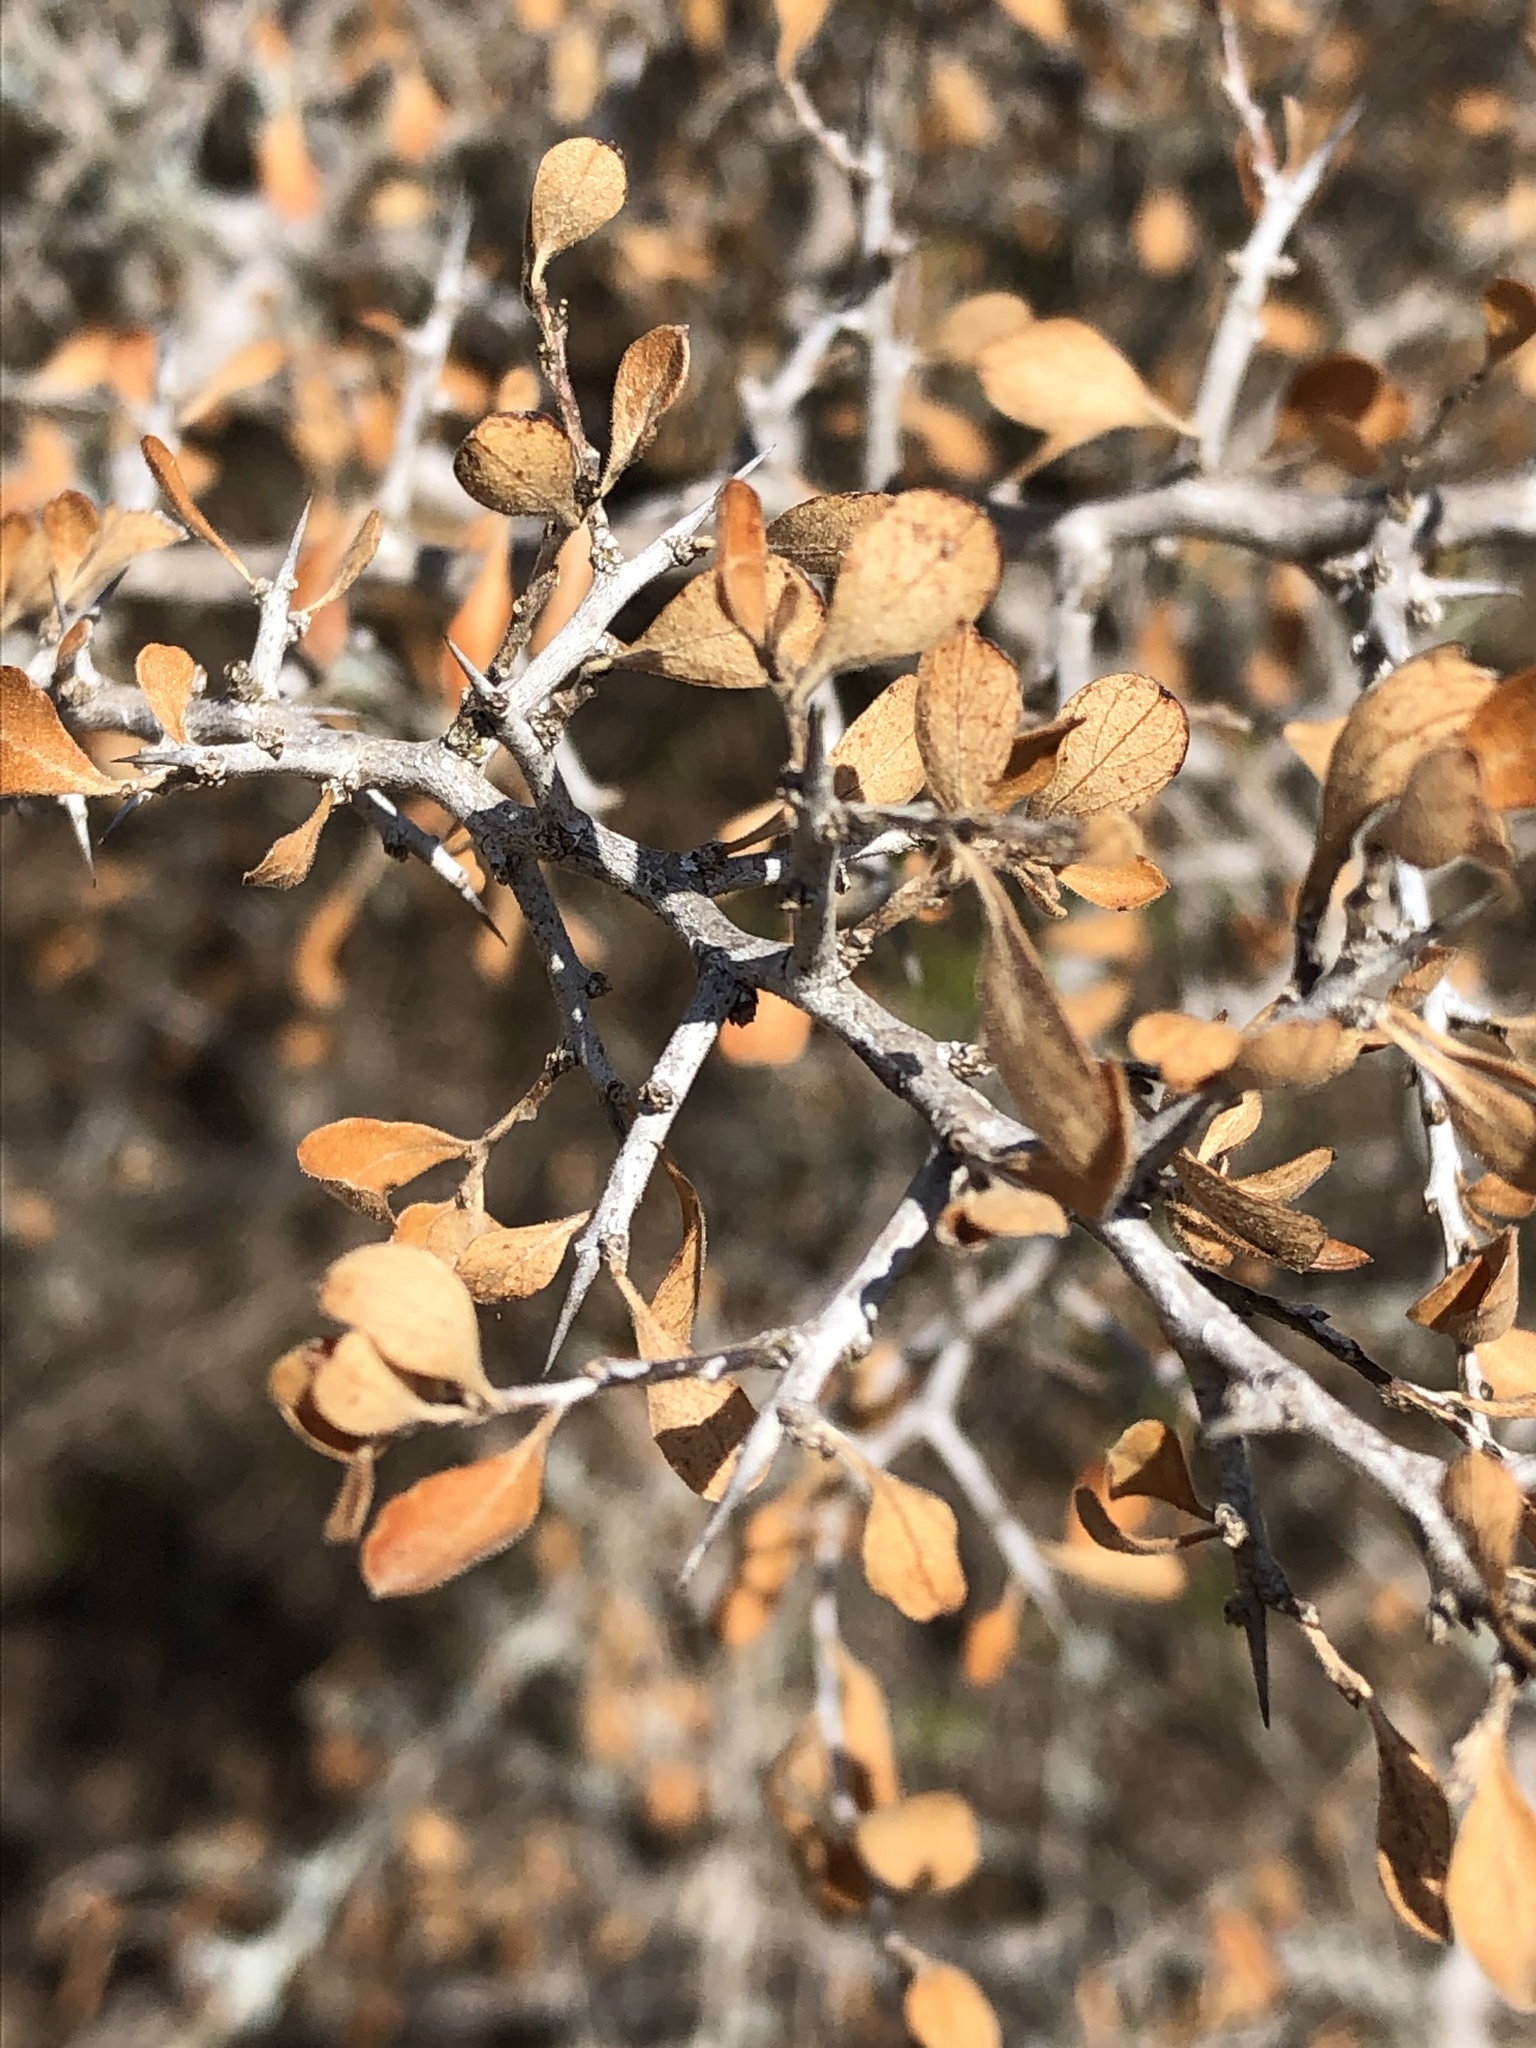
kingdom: Plantae
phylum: Tracheophyta
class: Magnoliopsida
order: Rosales
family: Rhamnaceae
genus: Condalia
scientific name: Condalia hookeri
